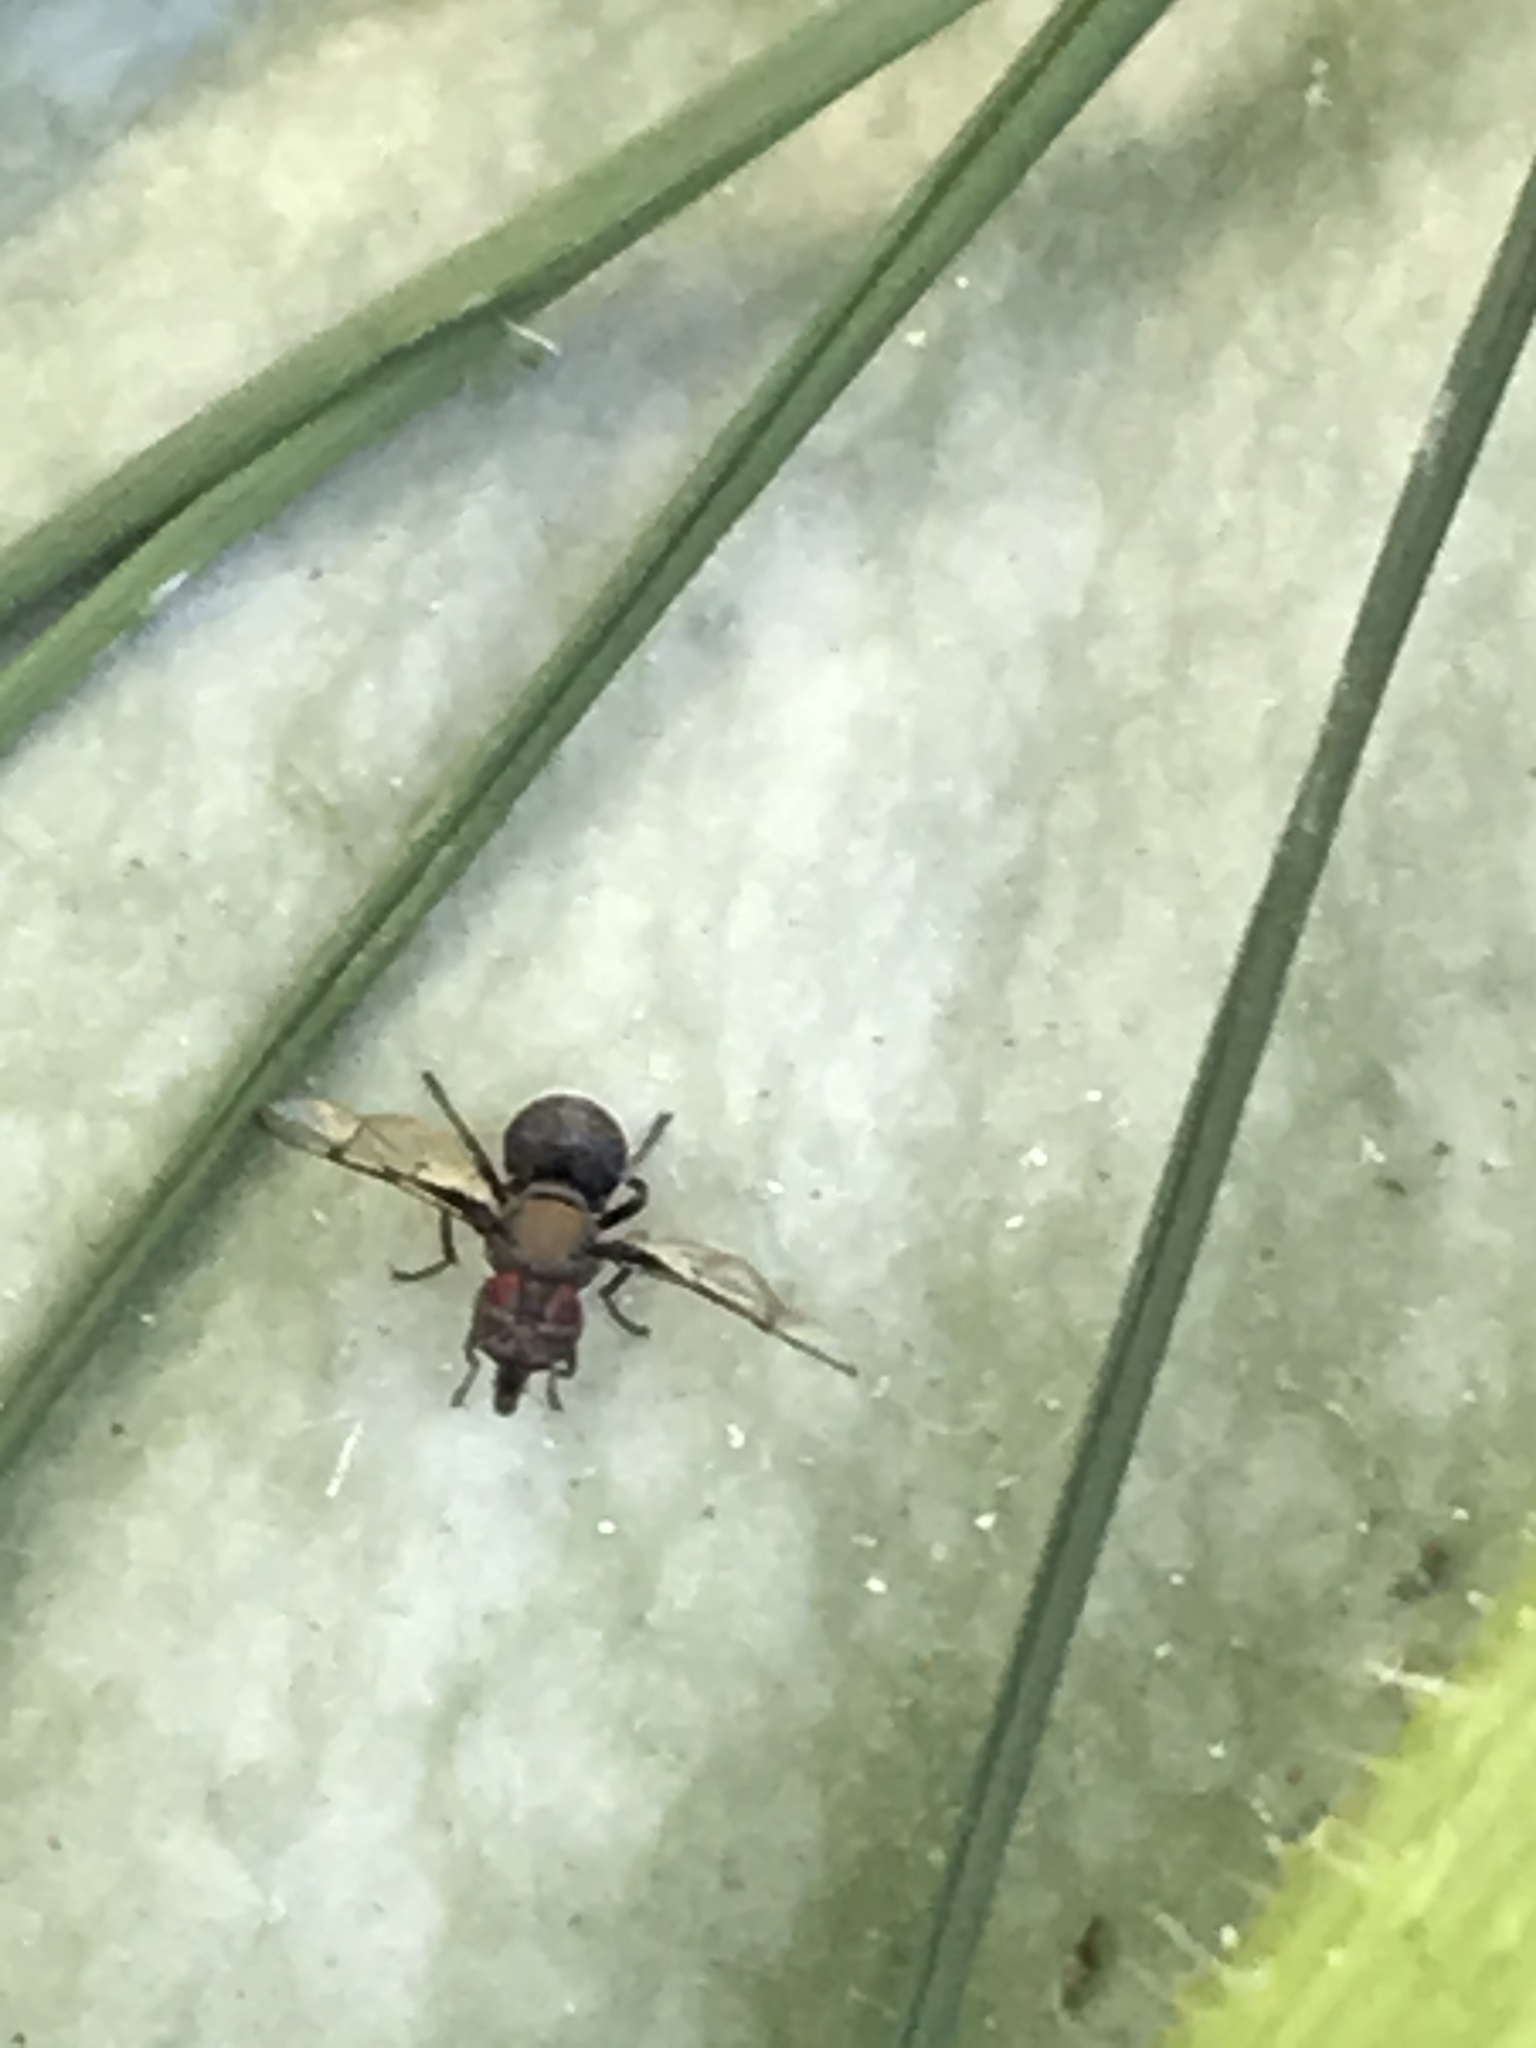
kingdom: Animalia
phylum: Arthropoda
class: Insecta
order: Diptera
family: Platystomatidae
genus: Pogonortalis
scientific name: Pogonortalis doclea
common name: Boatman fly
